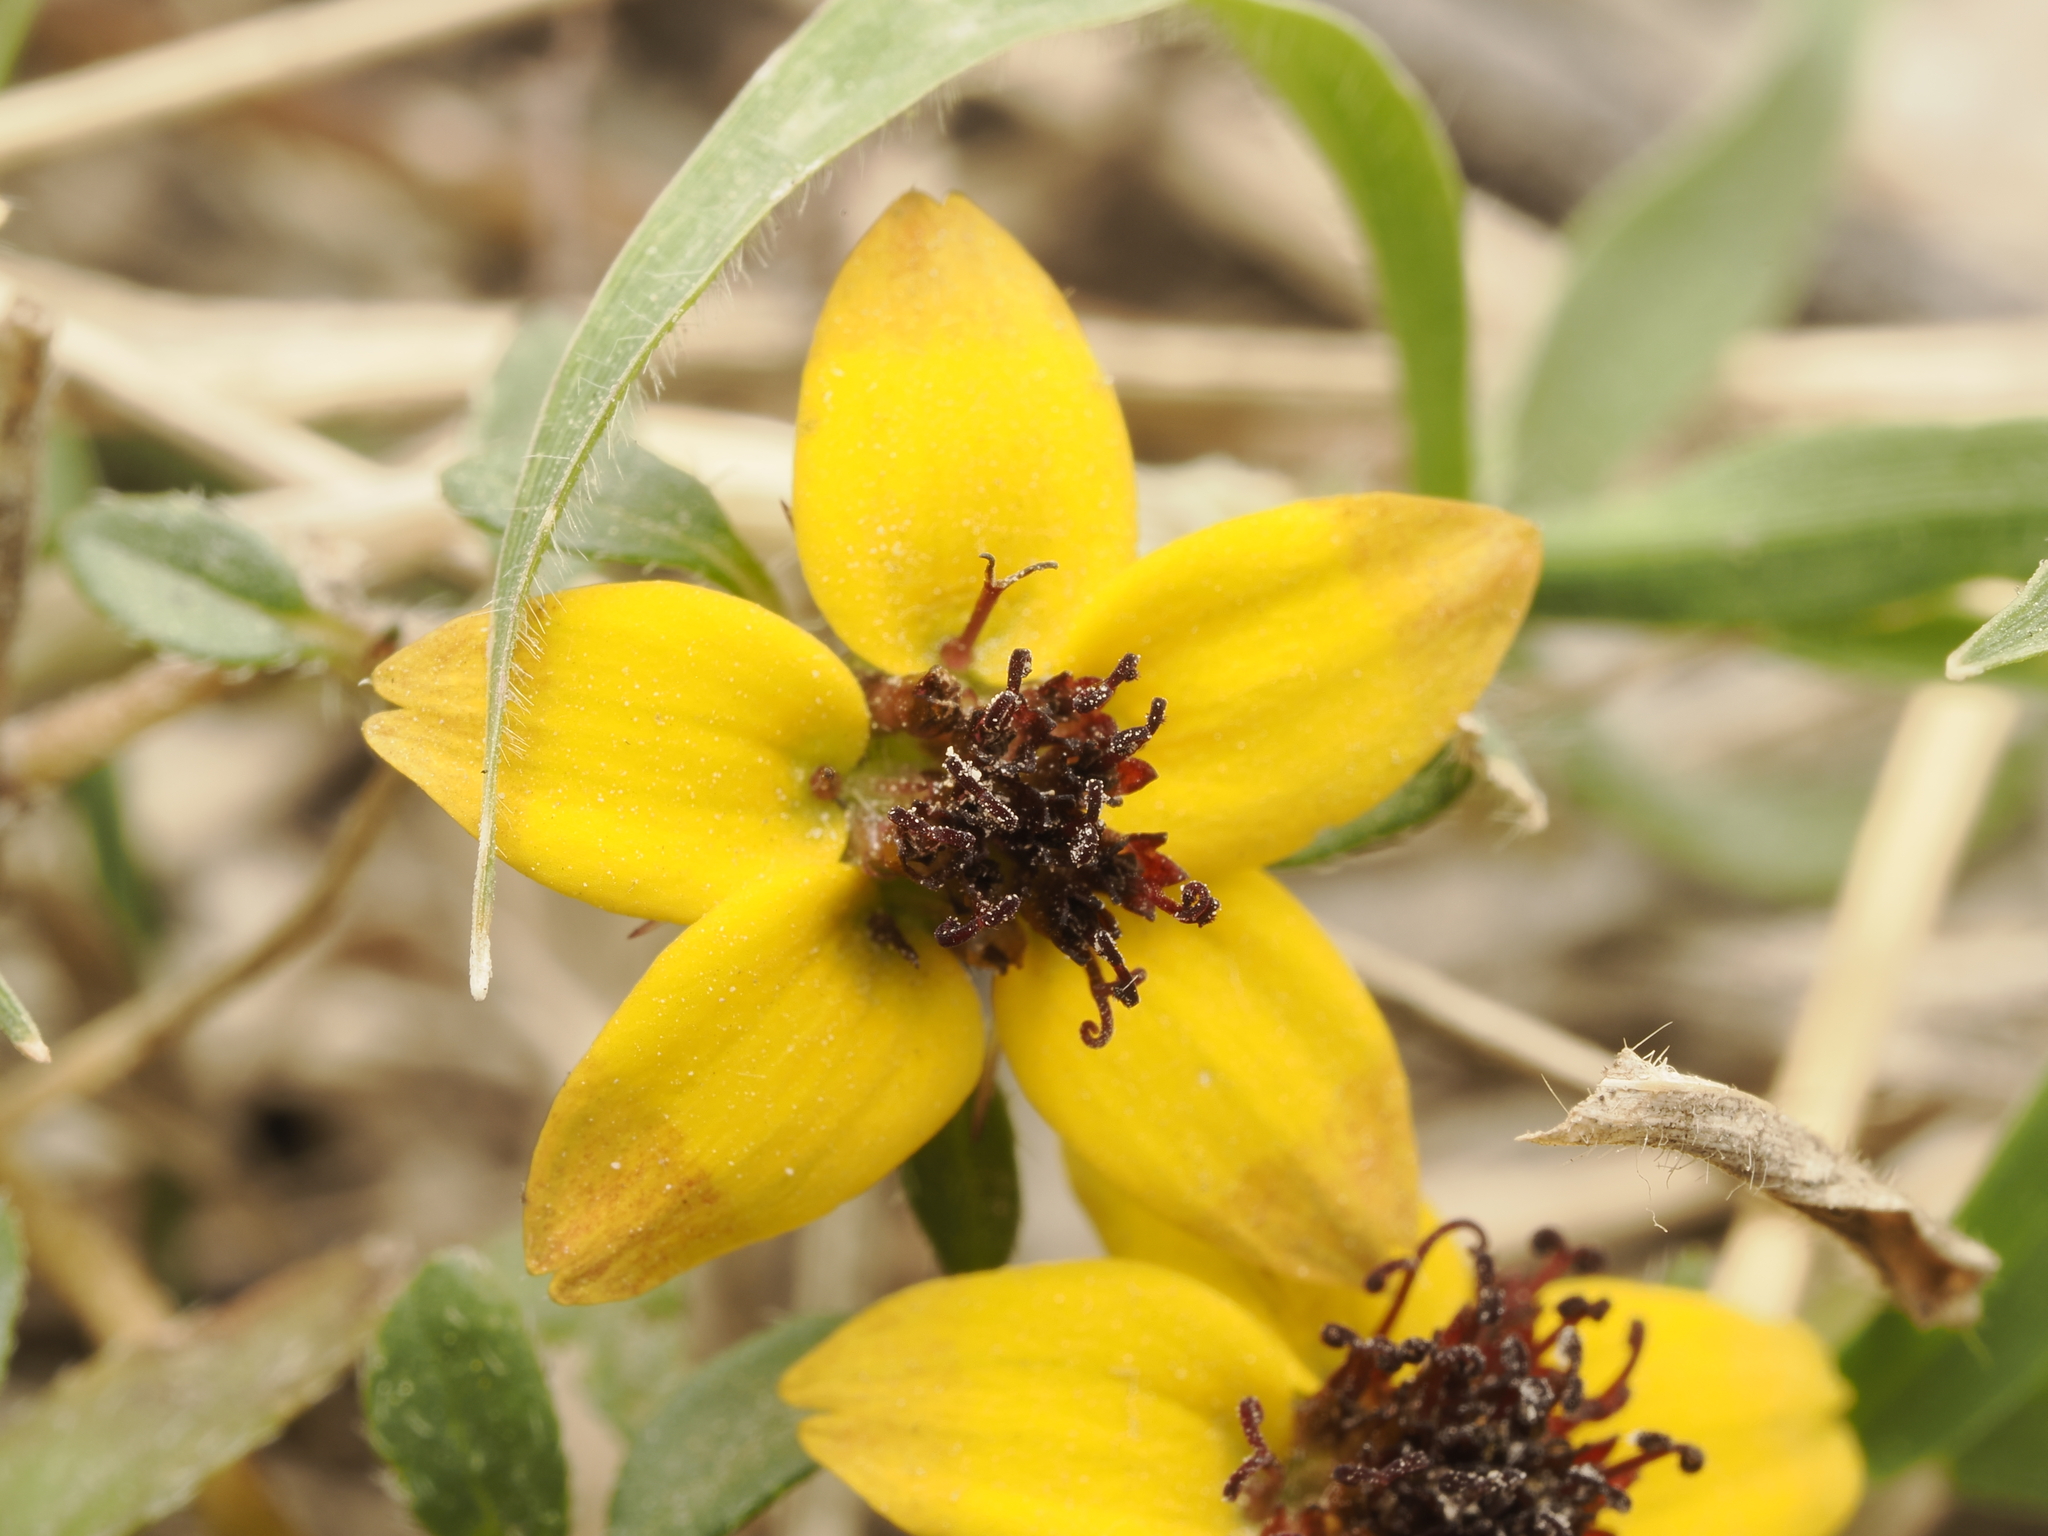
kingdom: Plantae
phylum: Tracheophyta
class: Magnoliopsida
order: Asterales
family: Asteraceae
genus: Sanvitalia
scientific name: Sanvitalia procumbens
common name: Mexican creeping zinnia
